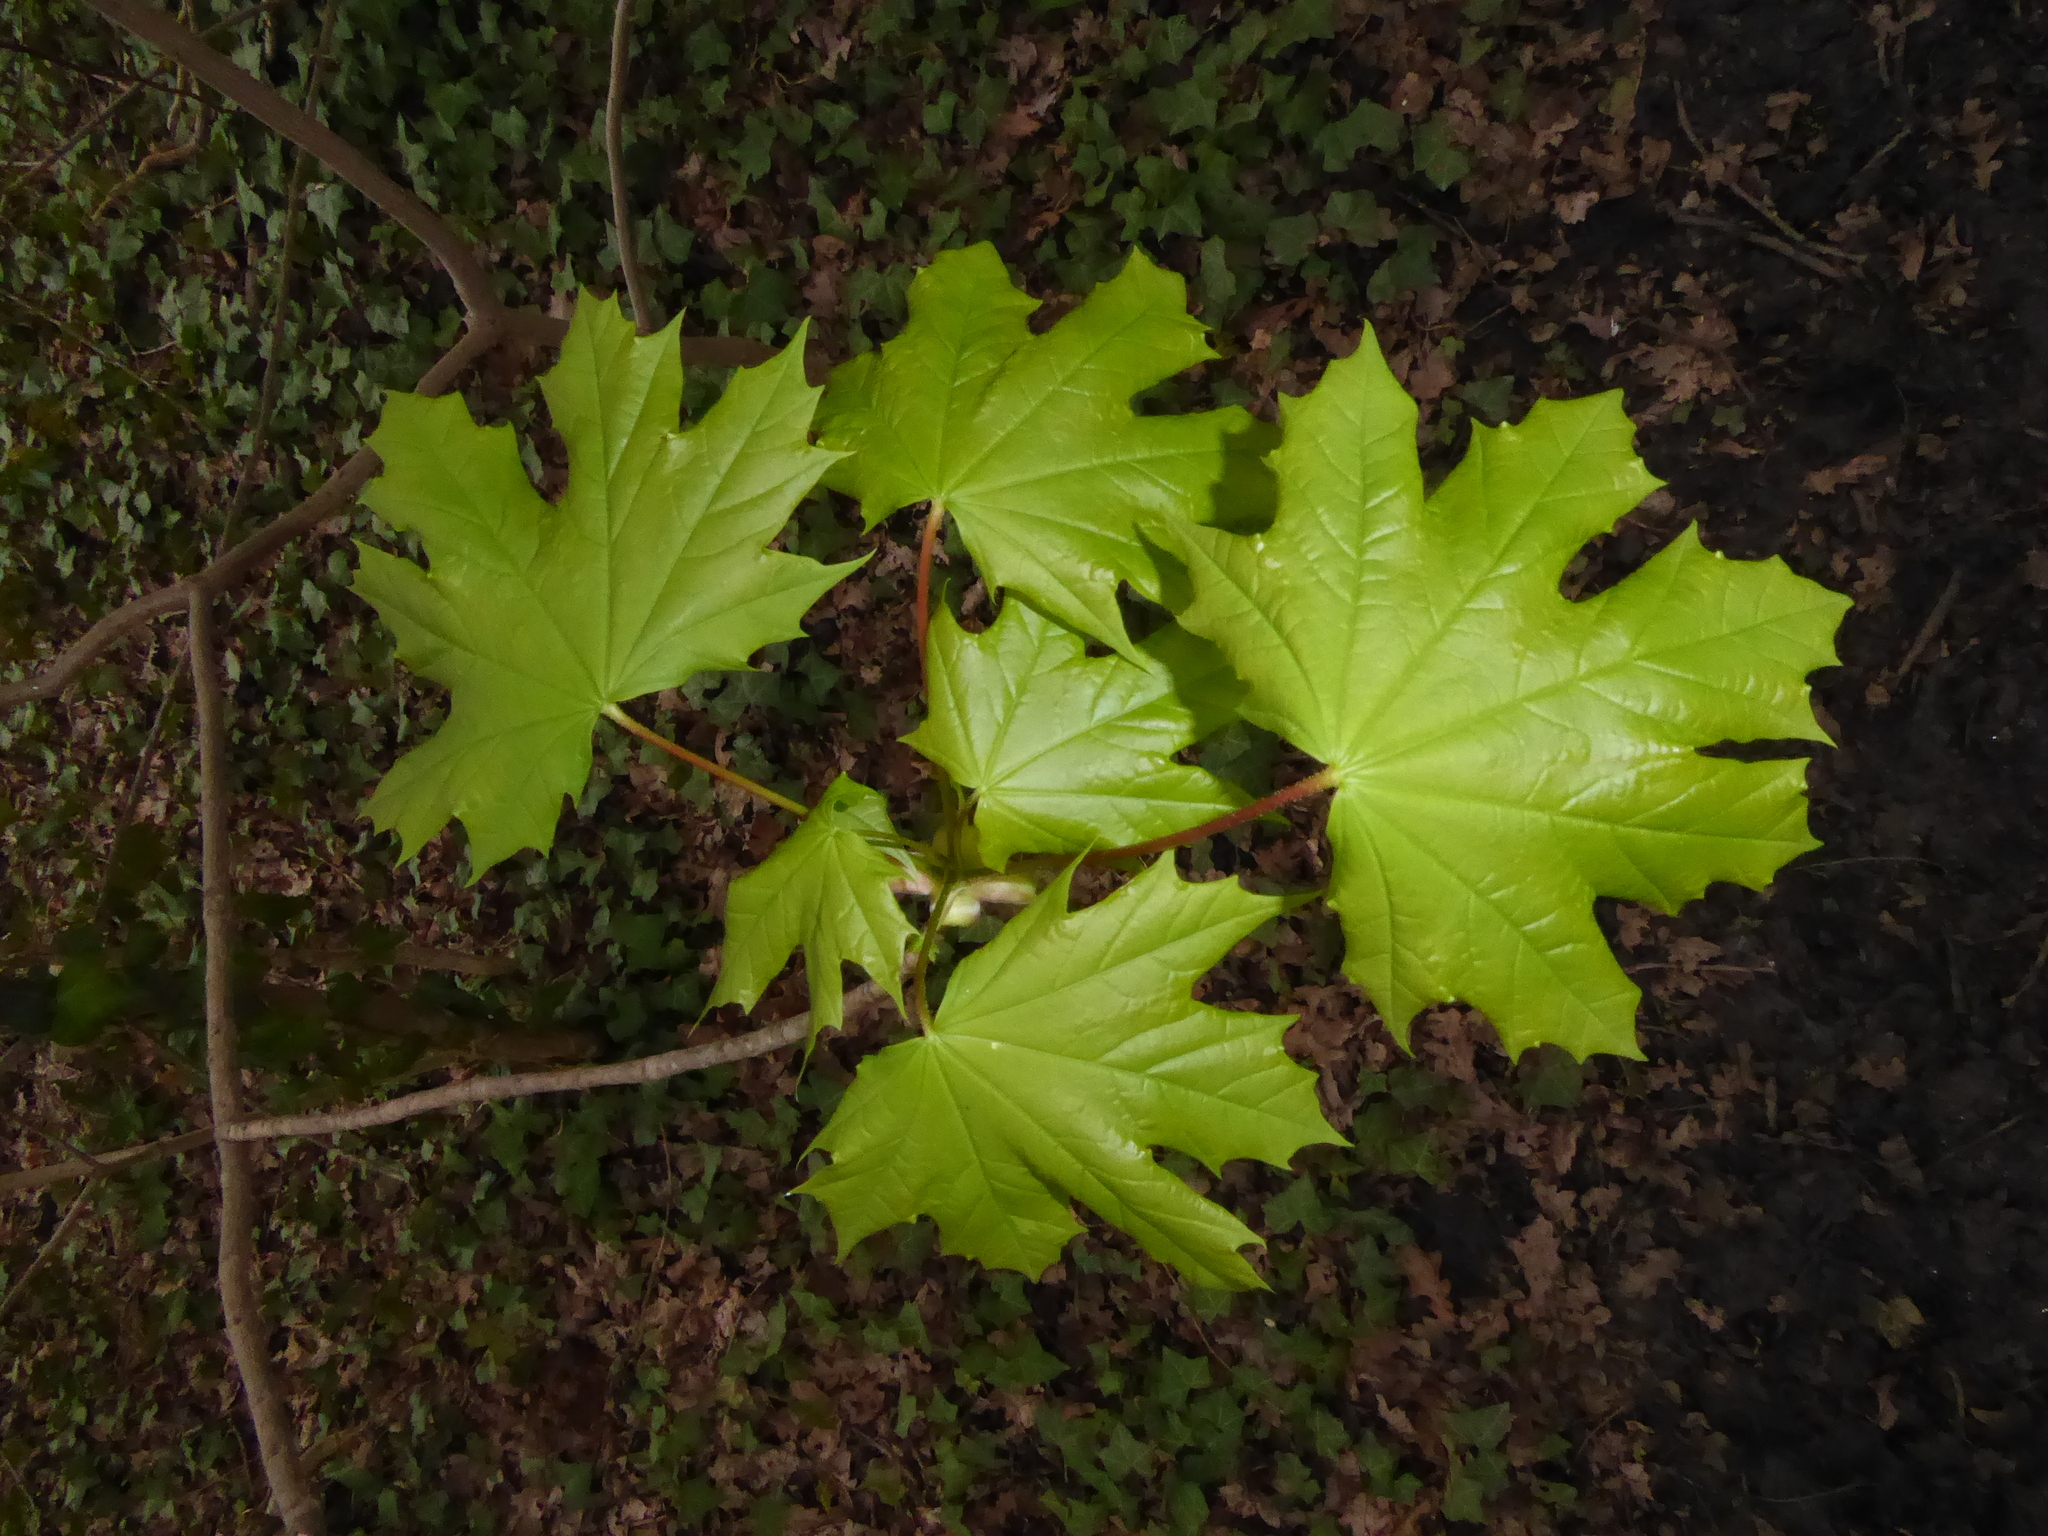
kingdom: Plantae
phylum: Tracheophyta
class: Magnoliopsida
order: Sapindales
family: Sapindaceae
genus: Acer
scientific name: Acer platanoides
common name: Norway maple
